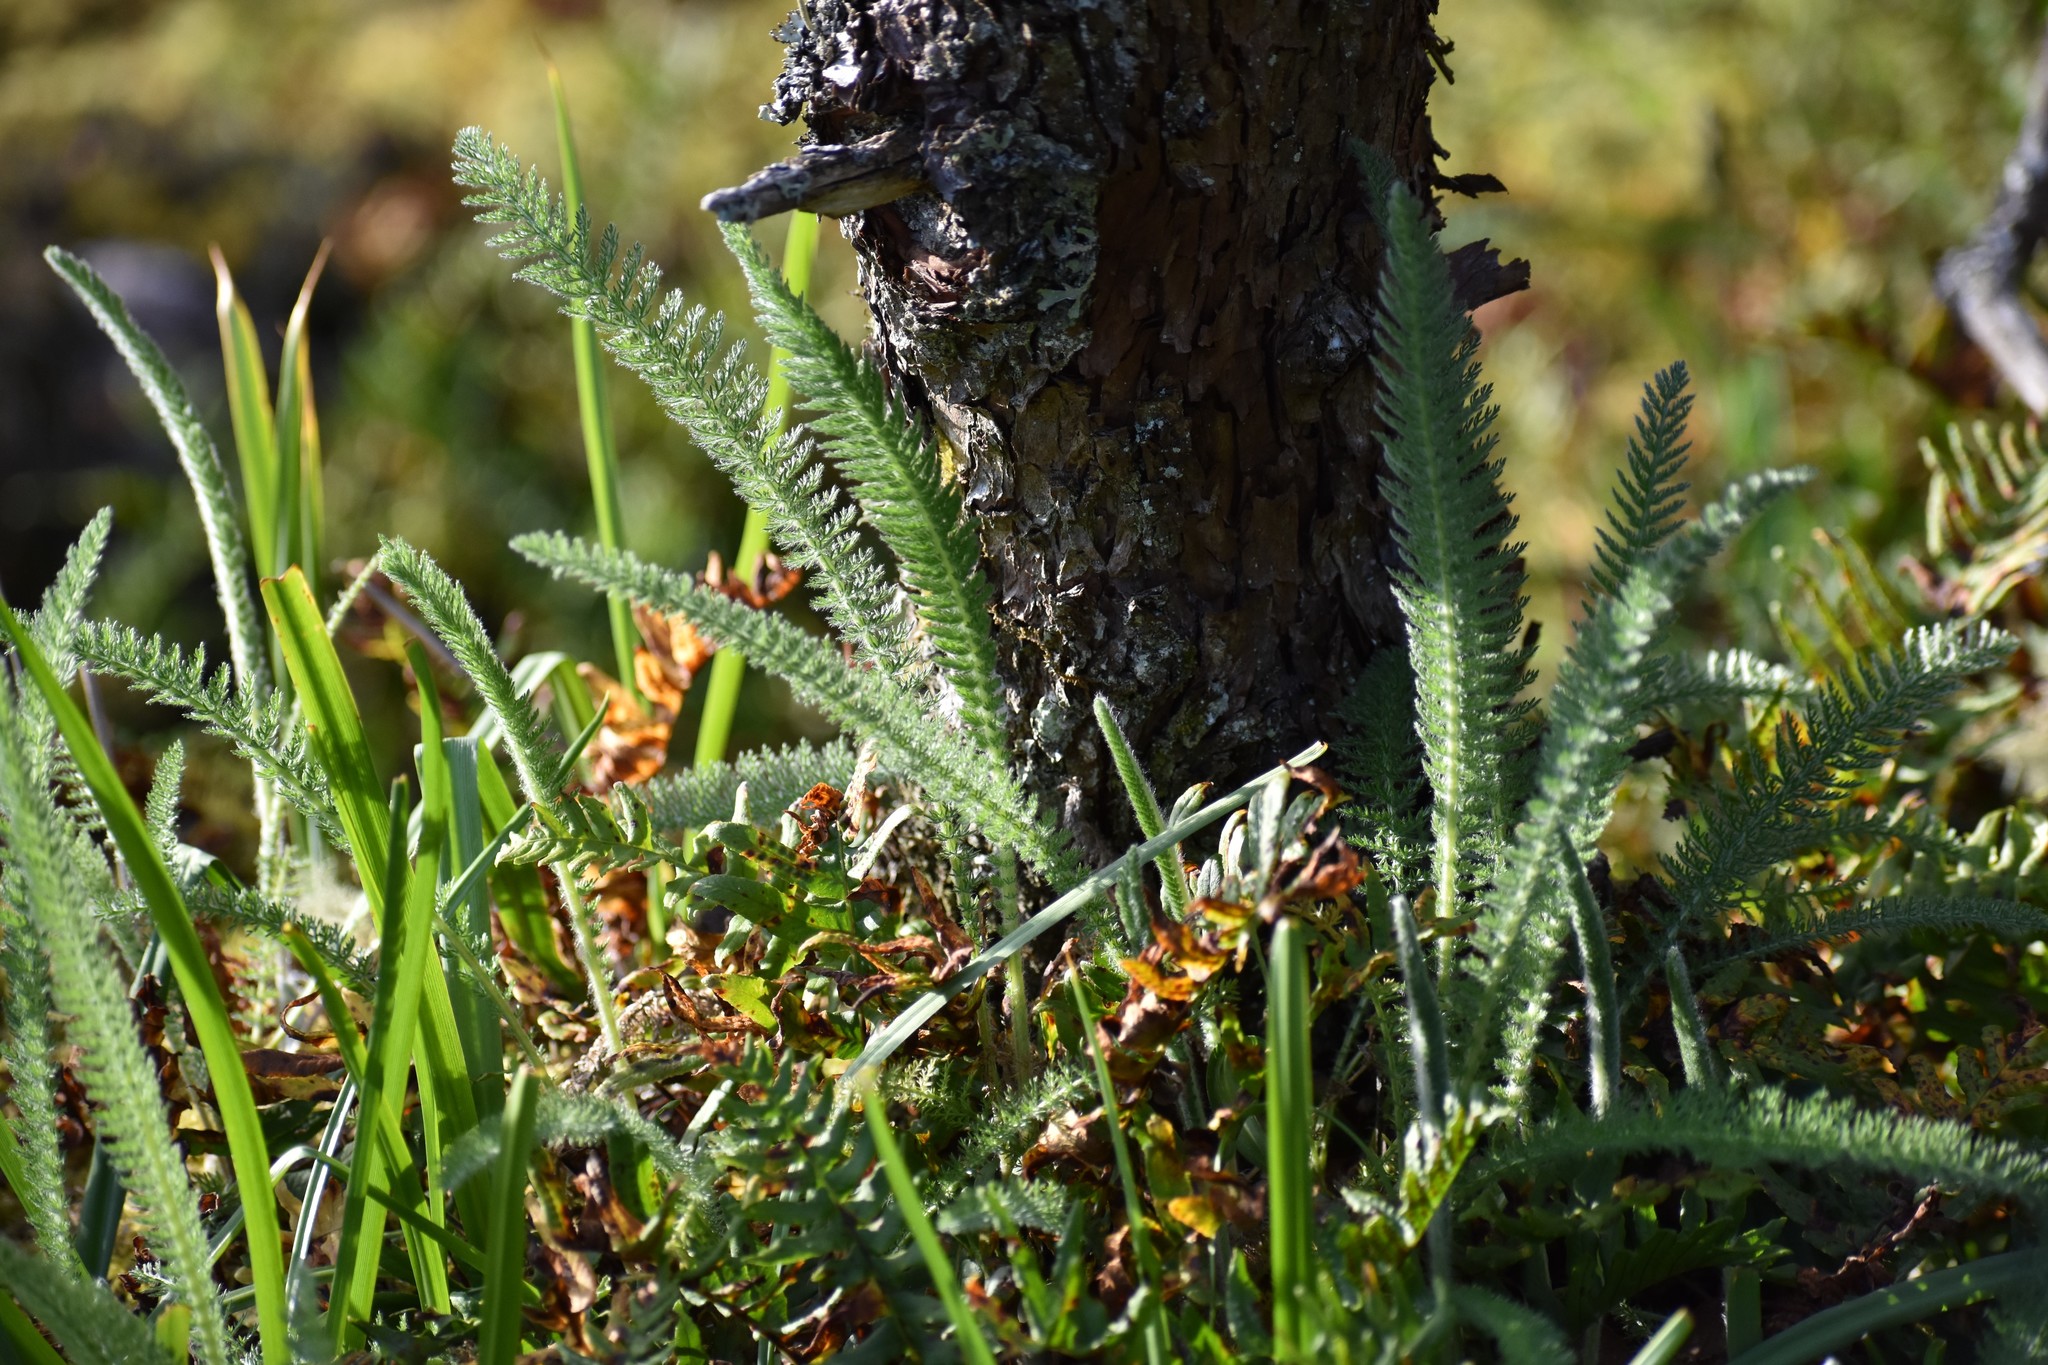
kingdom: Plantae
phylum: Tracheophyta
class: Magnoliopsida
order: Asterales
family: Asteraceae
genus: Achillea
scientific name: Achillea millefolium
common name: Yarrow
